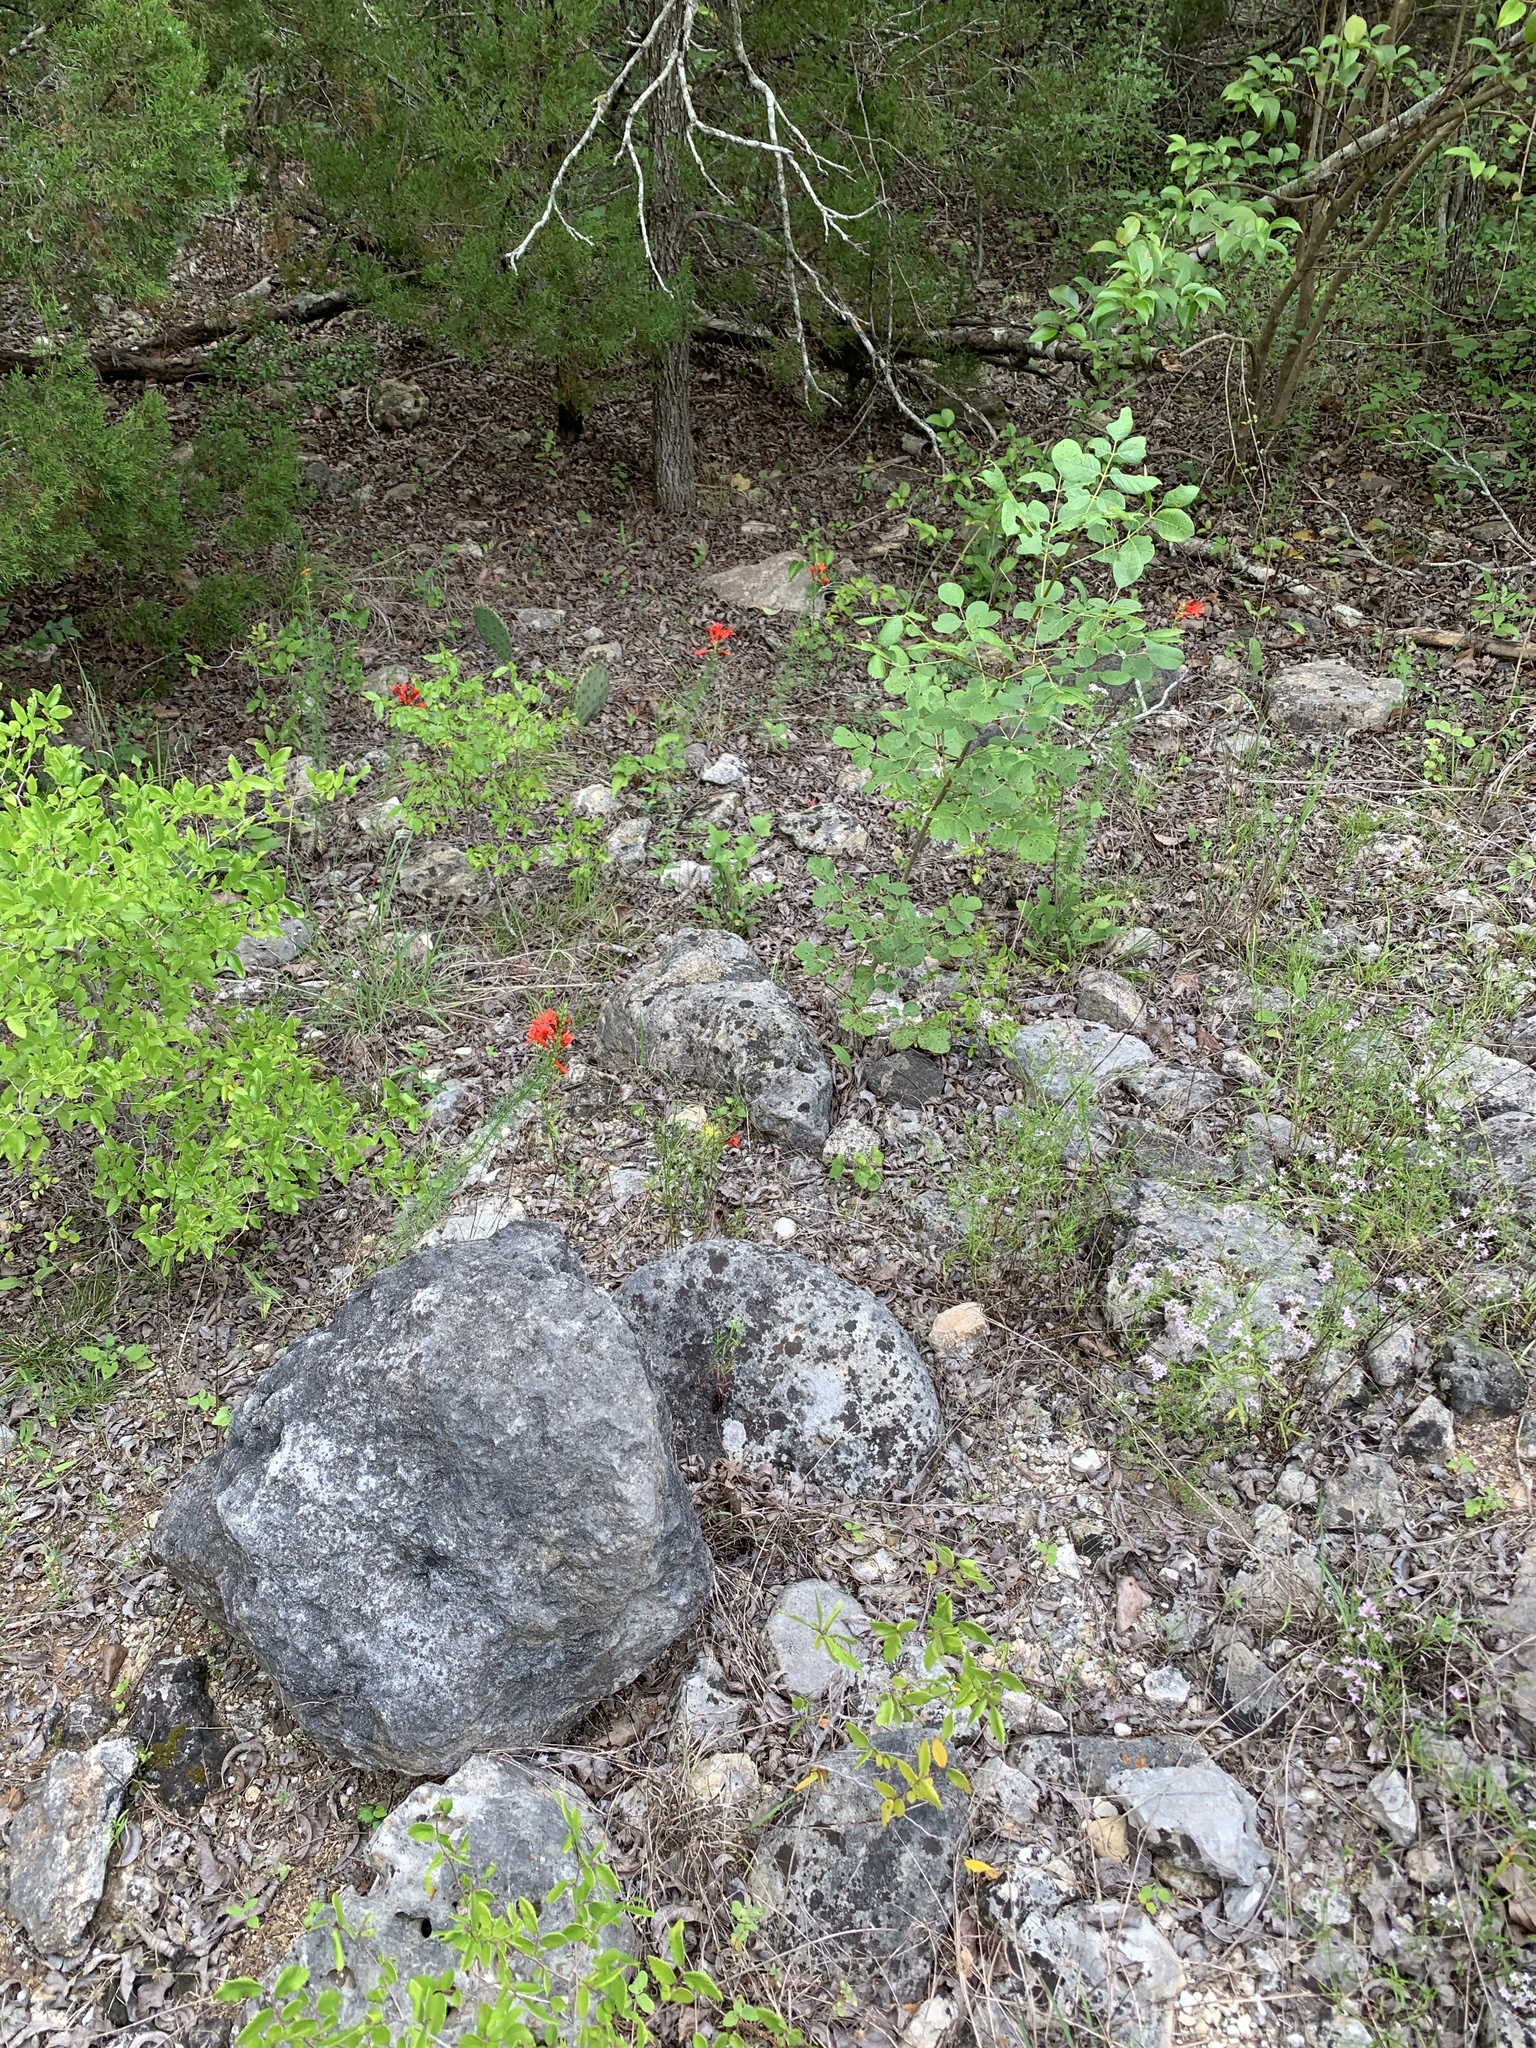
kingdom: Plantae
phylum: Tracheophyta
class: Magnoliopsida
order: Ericales
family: Polemoniaceae
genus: Ipomopsis
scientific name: Ipomopsis rubra
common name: Skyrocket
